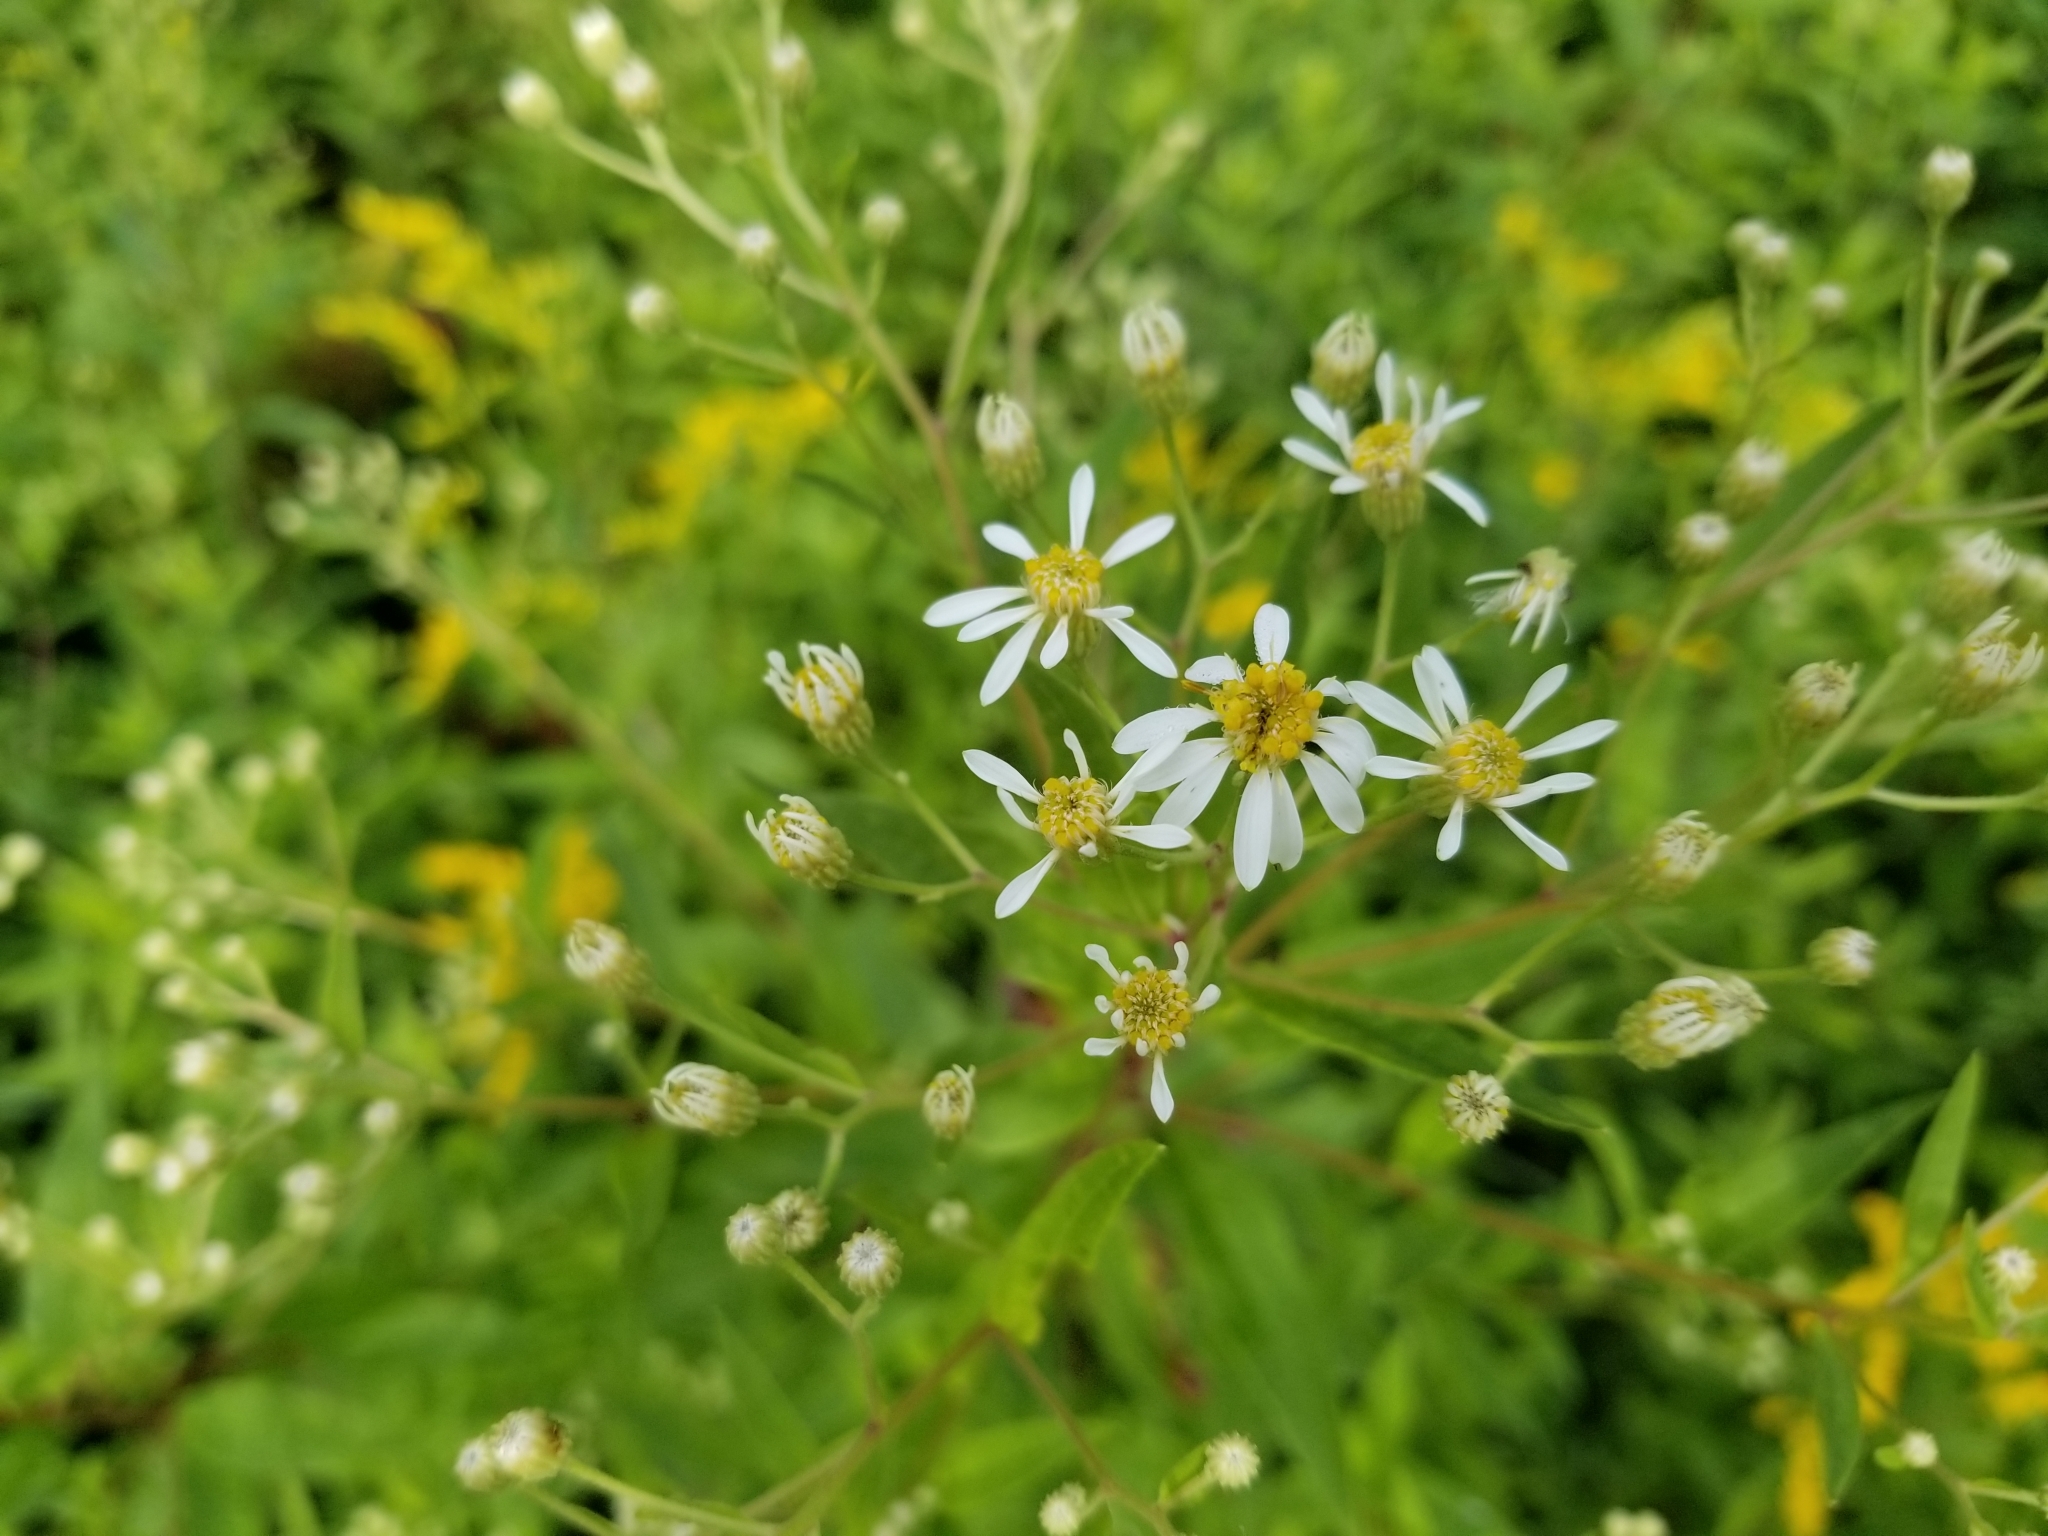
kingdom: Plantae
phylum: Tracheophyta
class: Magnoliopsida
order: Asterales
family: Asteraceae
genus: Doellingeria
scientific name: Doellingeria umbellata
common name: Flat-top white aster
